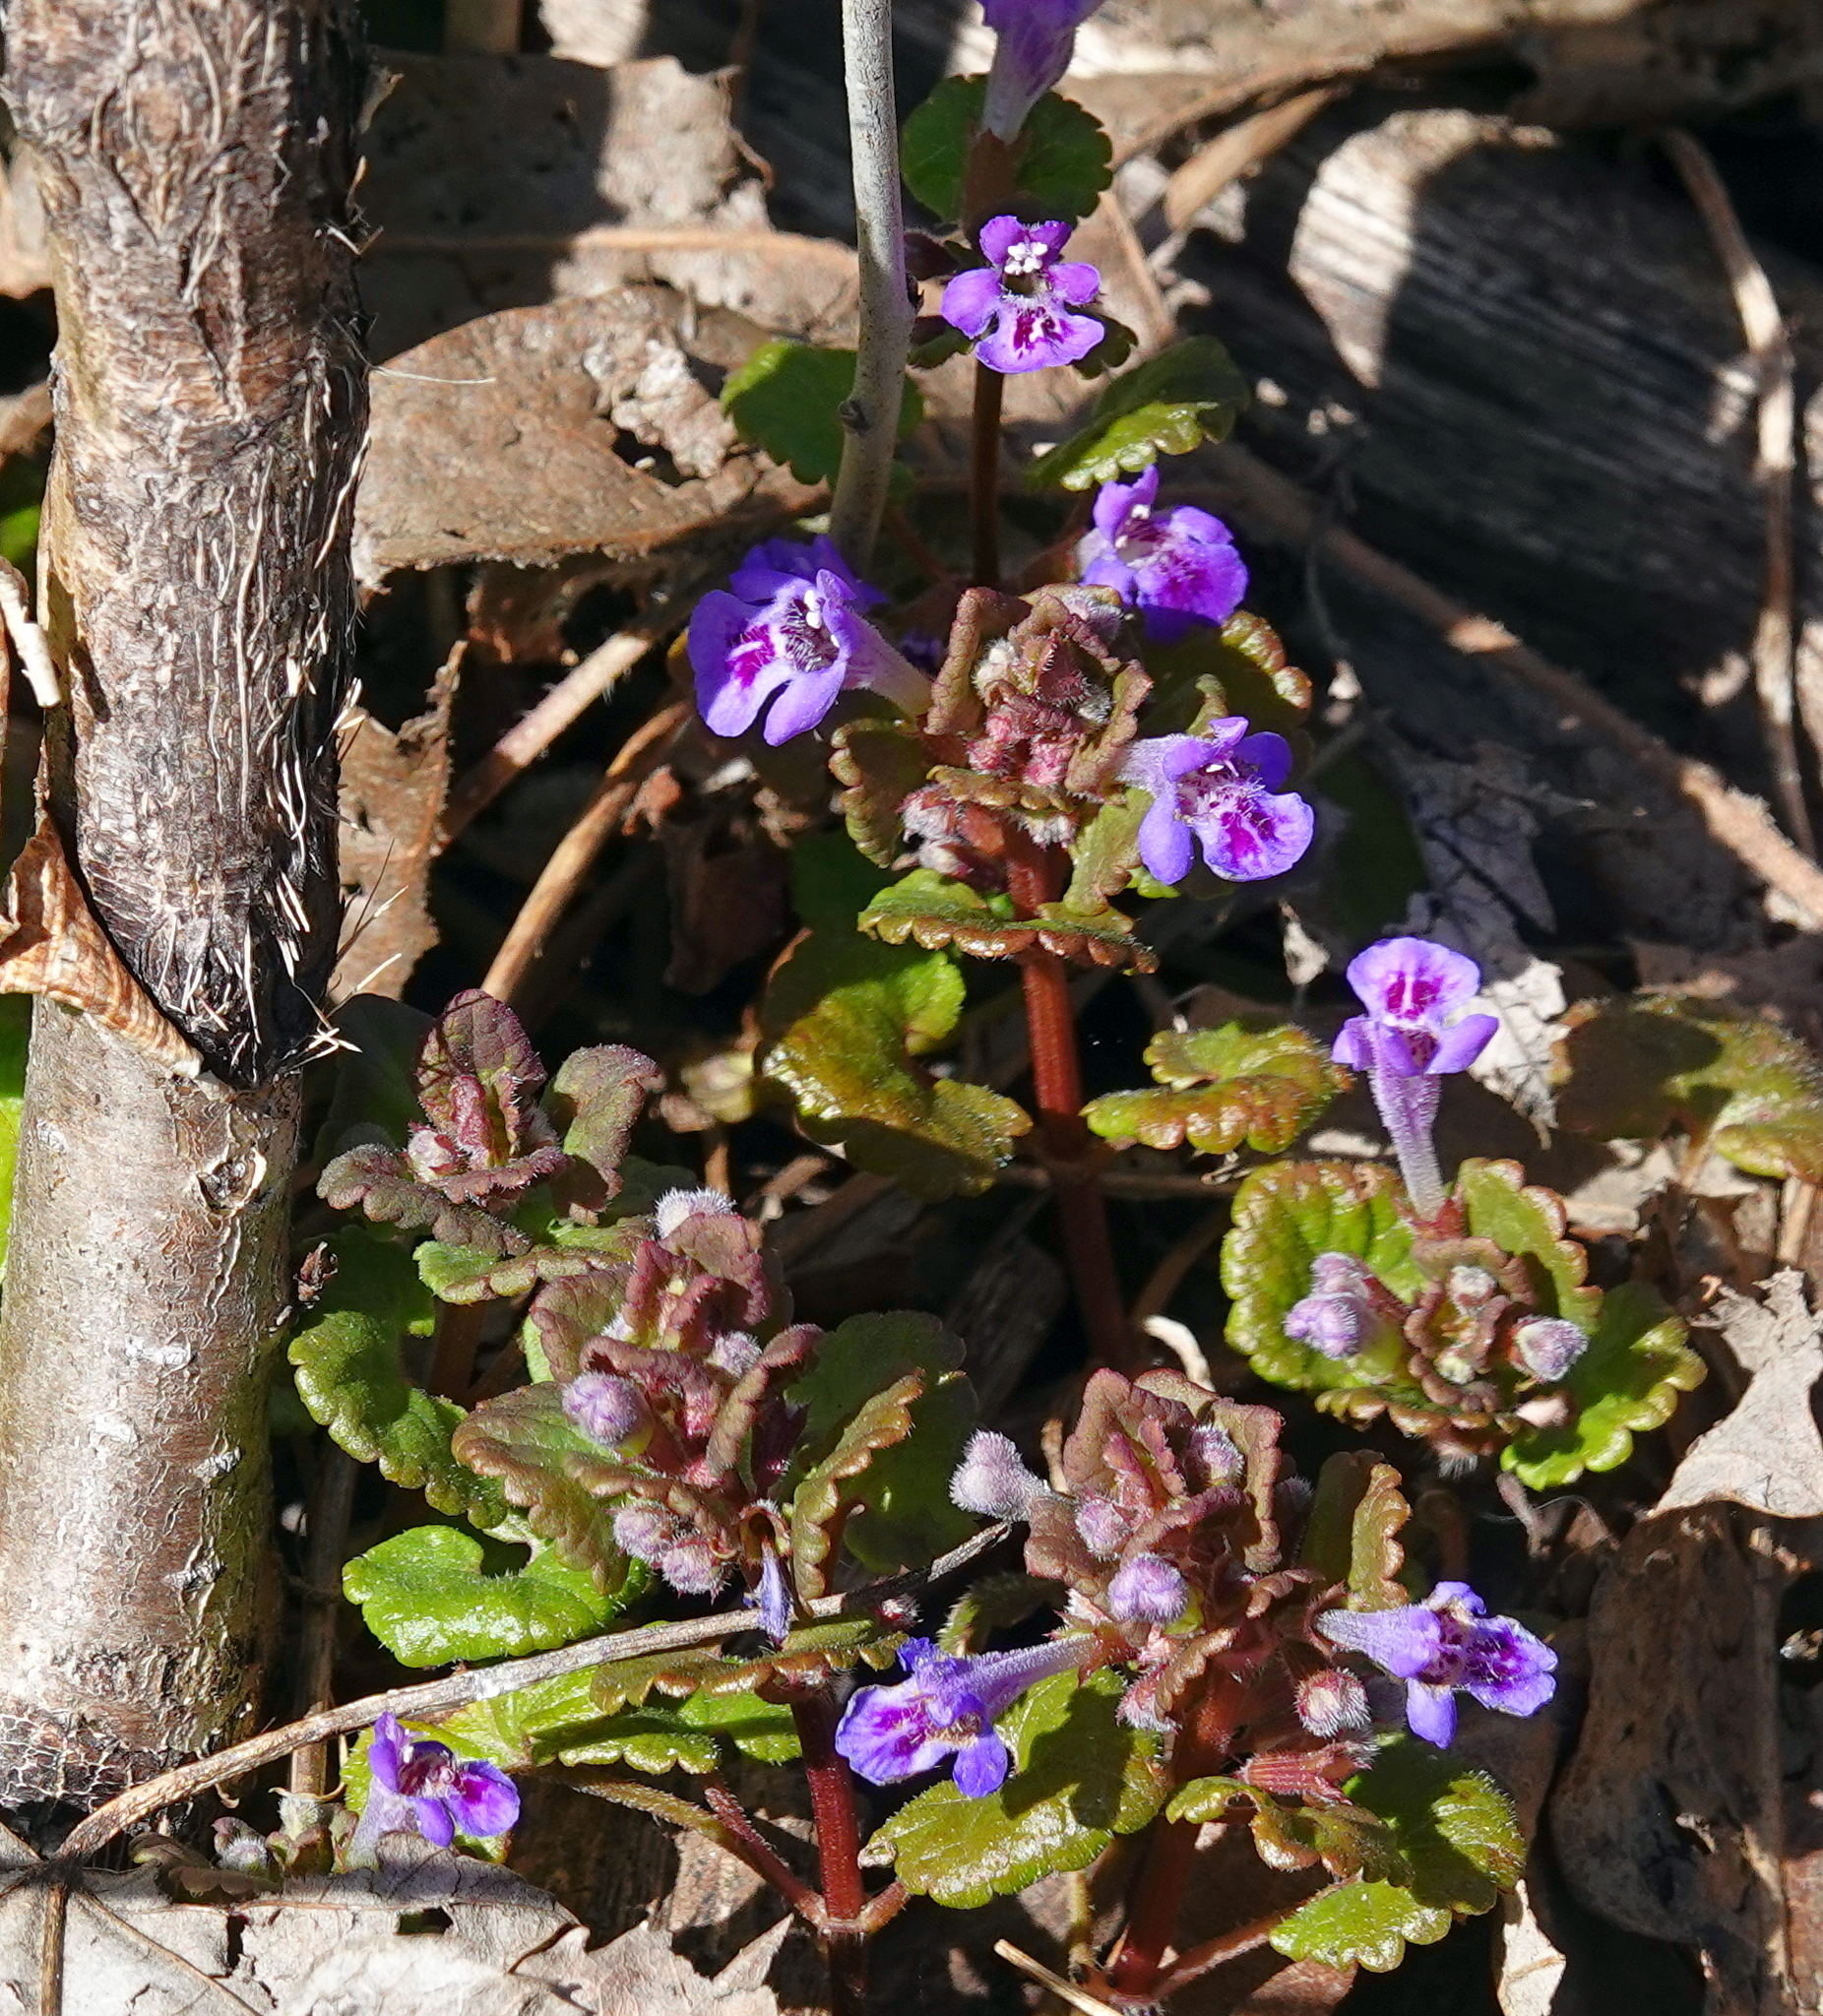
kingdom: Plantae
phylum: Tracheophyta
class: Magnoliopsida
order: Lamiales
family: Lamiaceae
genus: Glechoma
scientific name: Glechoma hederacea
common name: Ground ivy
